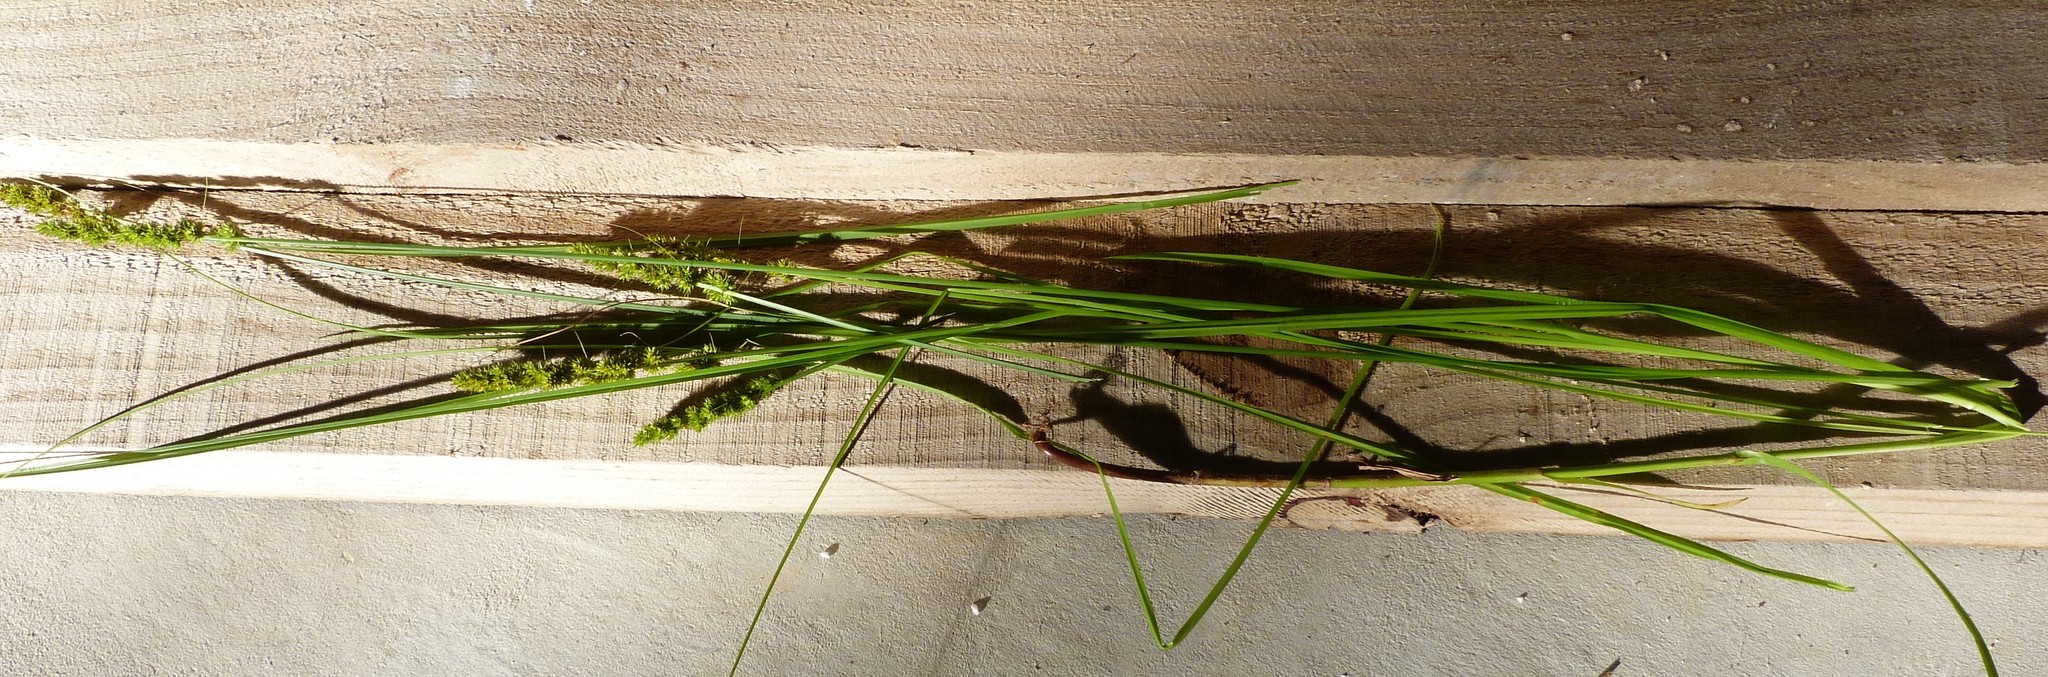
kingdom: Plantae
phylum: Tracheophyta
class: Liliopsida
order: Poales
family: Cyperaceae
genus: Carex
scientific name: Carex vulpinoidea
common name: American fox-sedge
